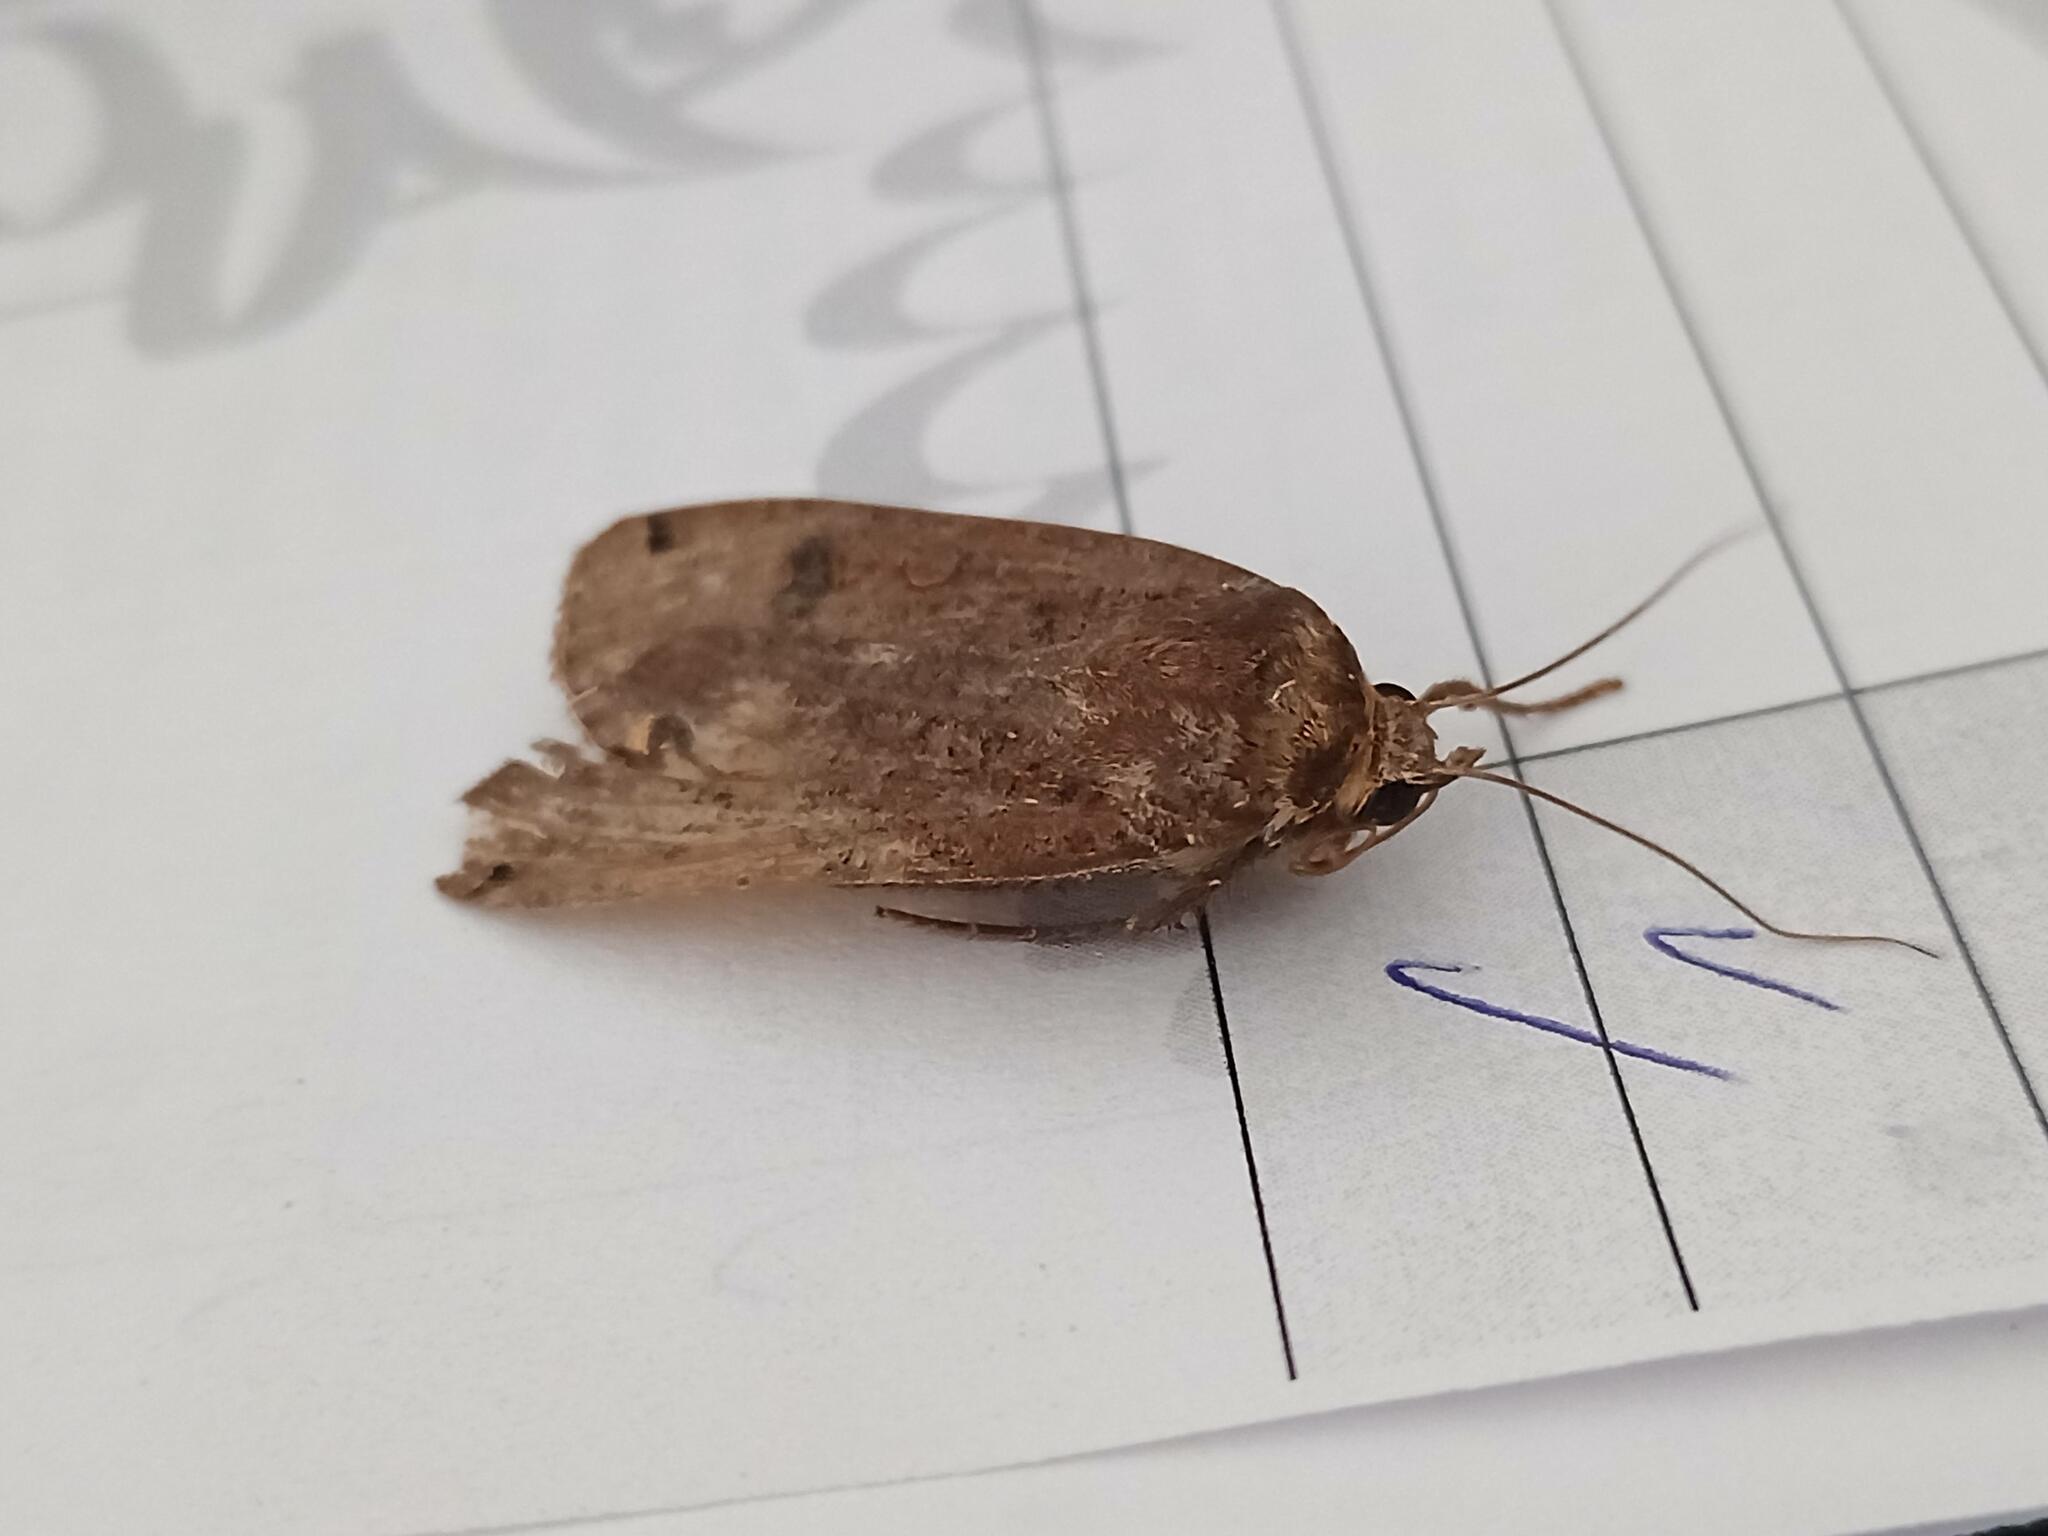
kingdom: Animalia
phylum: Arthropoda
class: Insecta
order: Lepidoptera
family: Noctuidae
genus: Noctua
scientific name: Noctua pronuba
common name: Large yellow underwing
